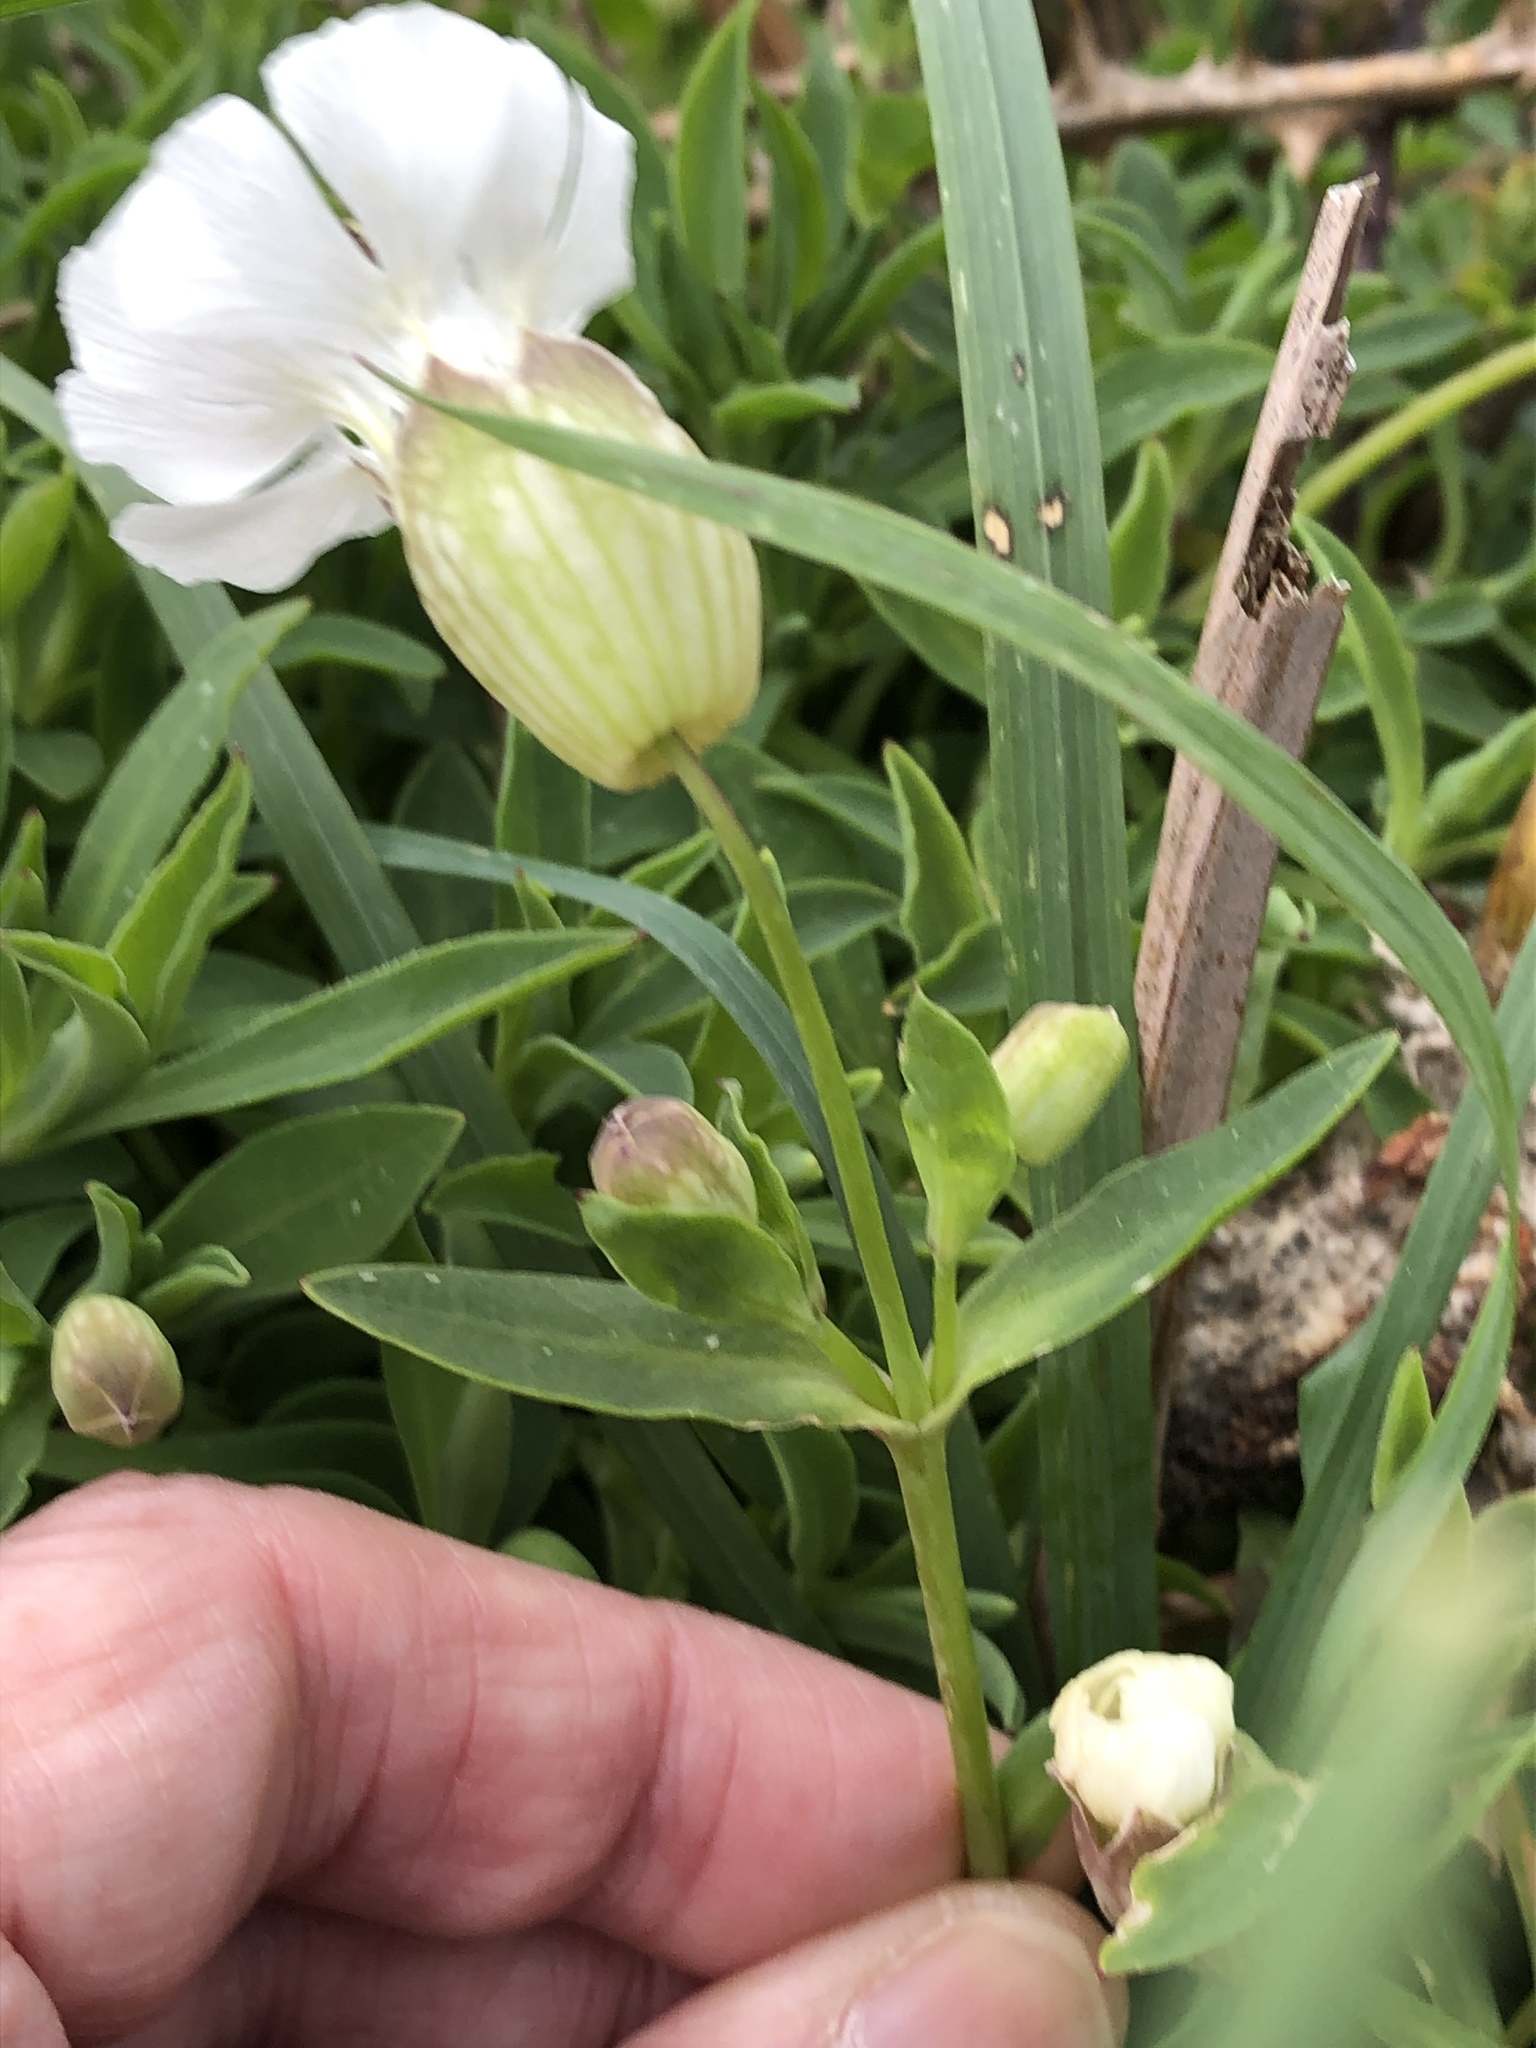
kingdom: Plantae
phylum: Tracheophyta
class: Magnoliopsida
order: Caryophyllales
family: Caryophyllaceae
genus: Silene
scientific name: Silene uniflora
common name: Sea campion
